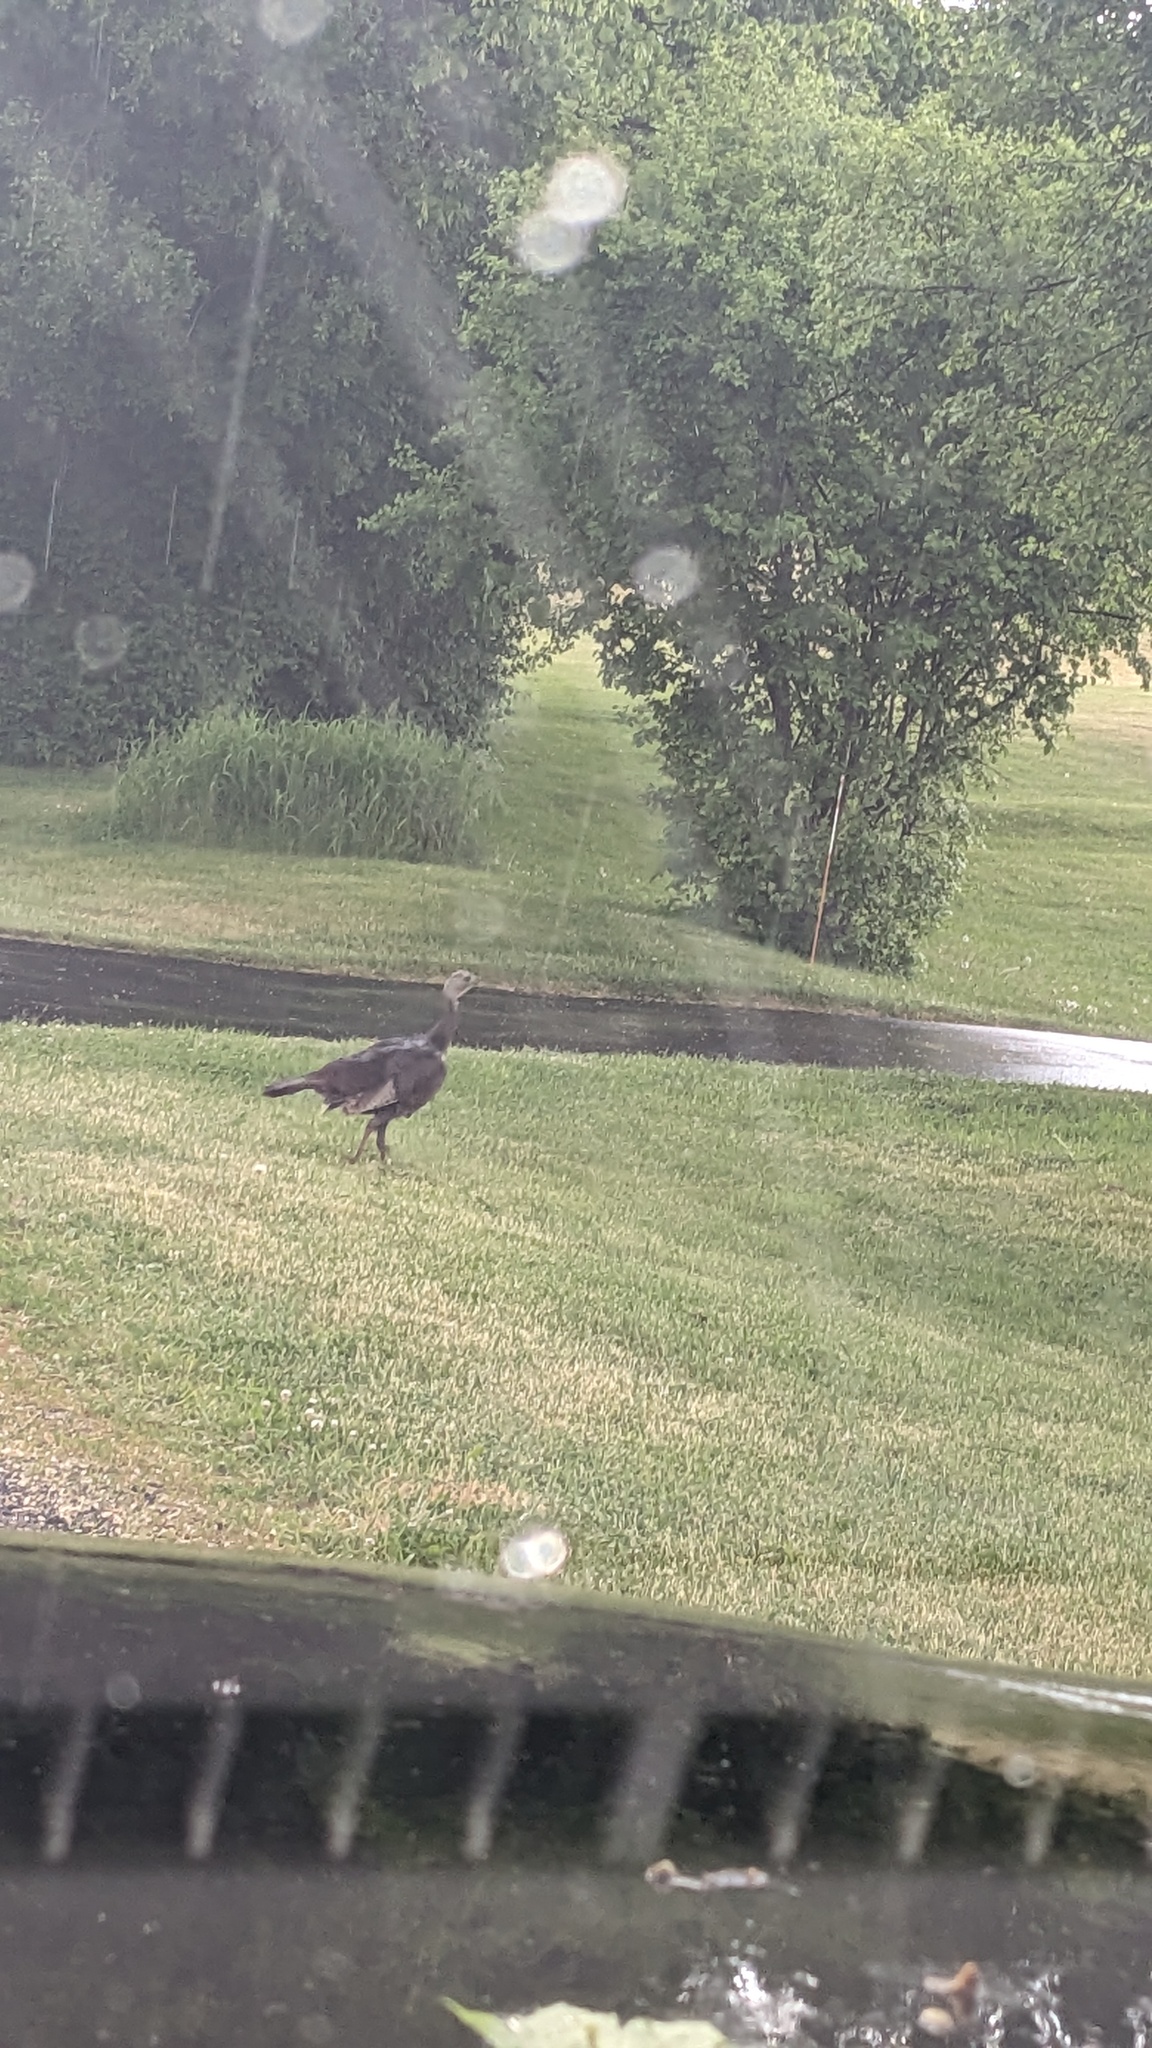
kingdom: Animalia
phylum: Chordata
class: Aves
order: Galliformes
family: Phasianidae
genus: Meleagris
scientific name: Meleagris gallopavo
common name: Wild turkey
